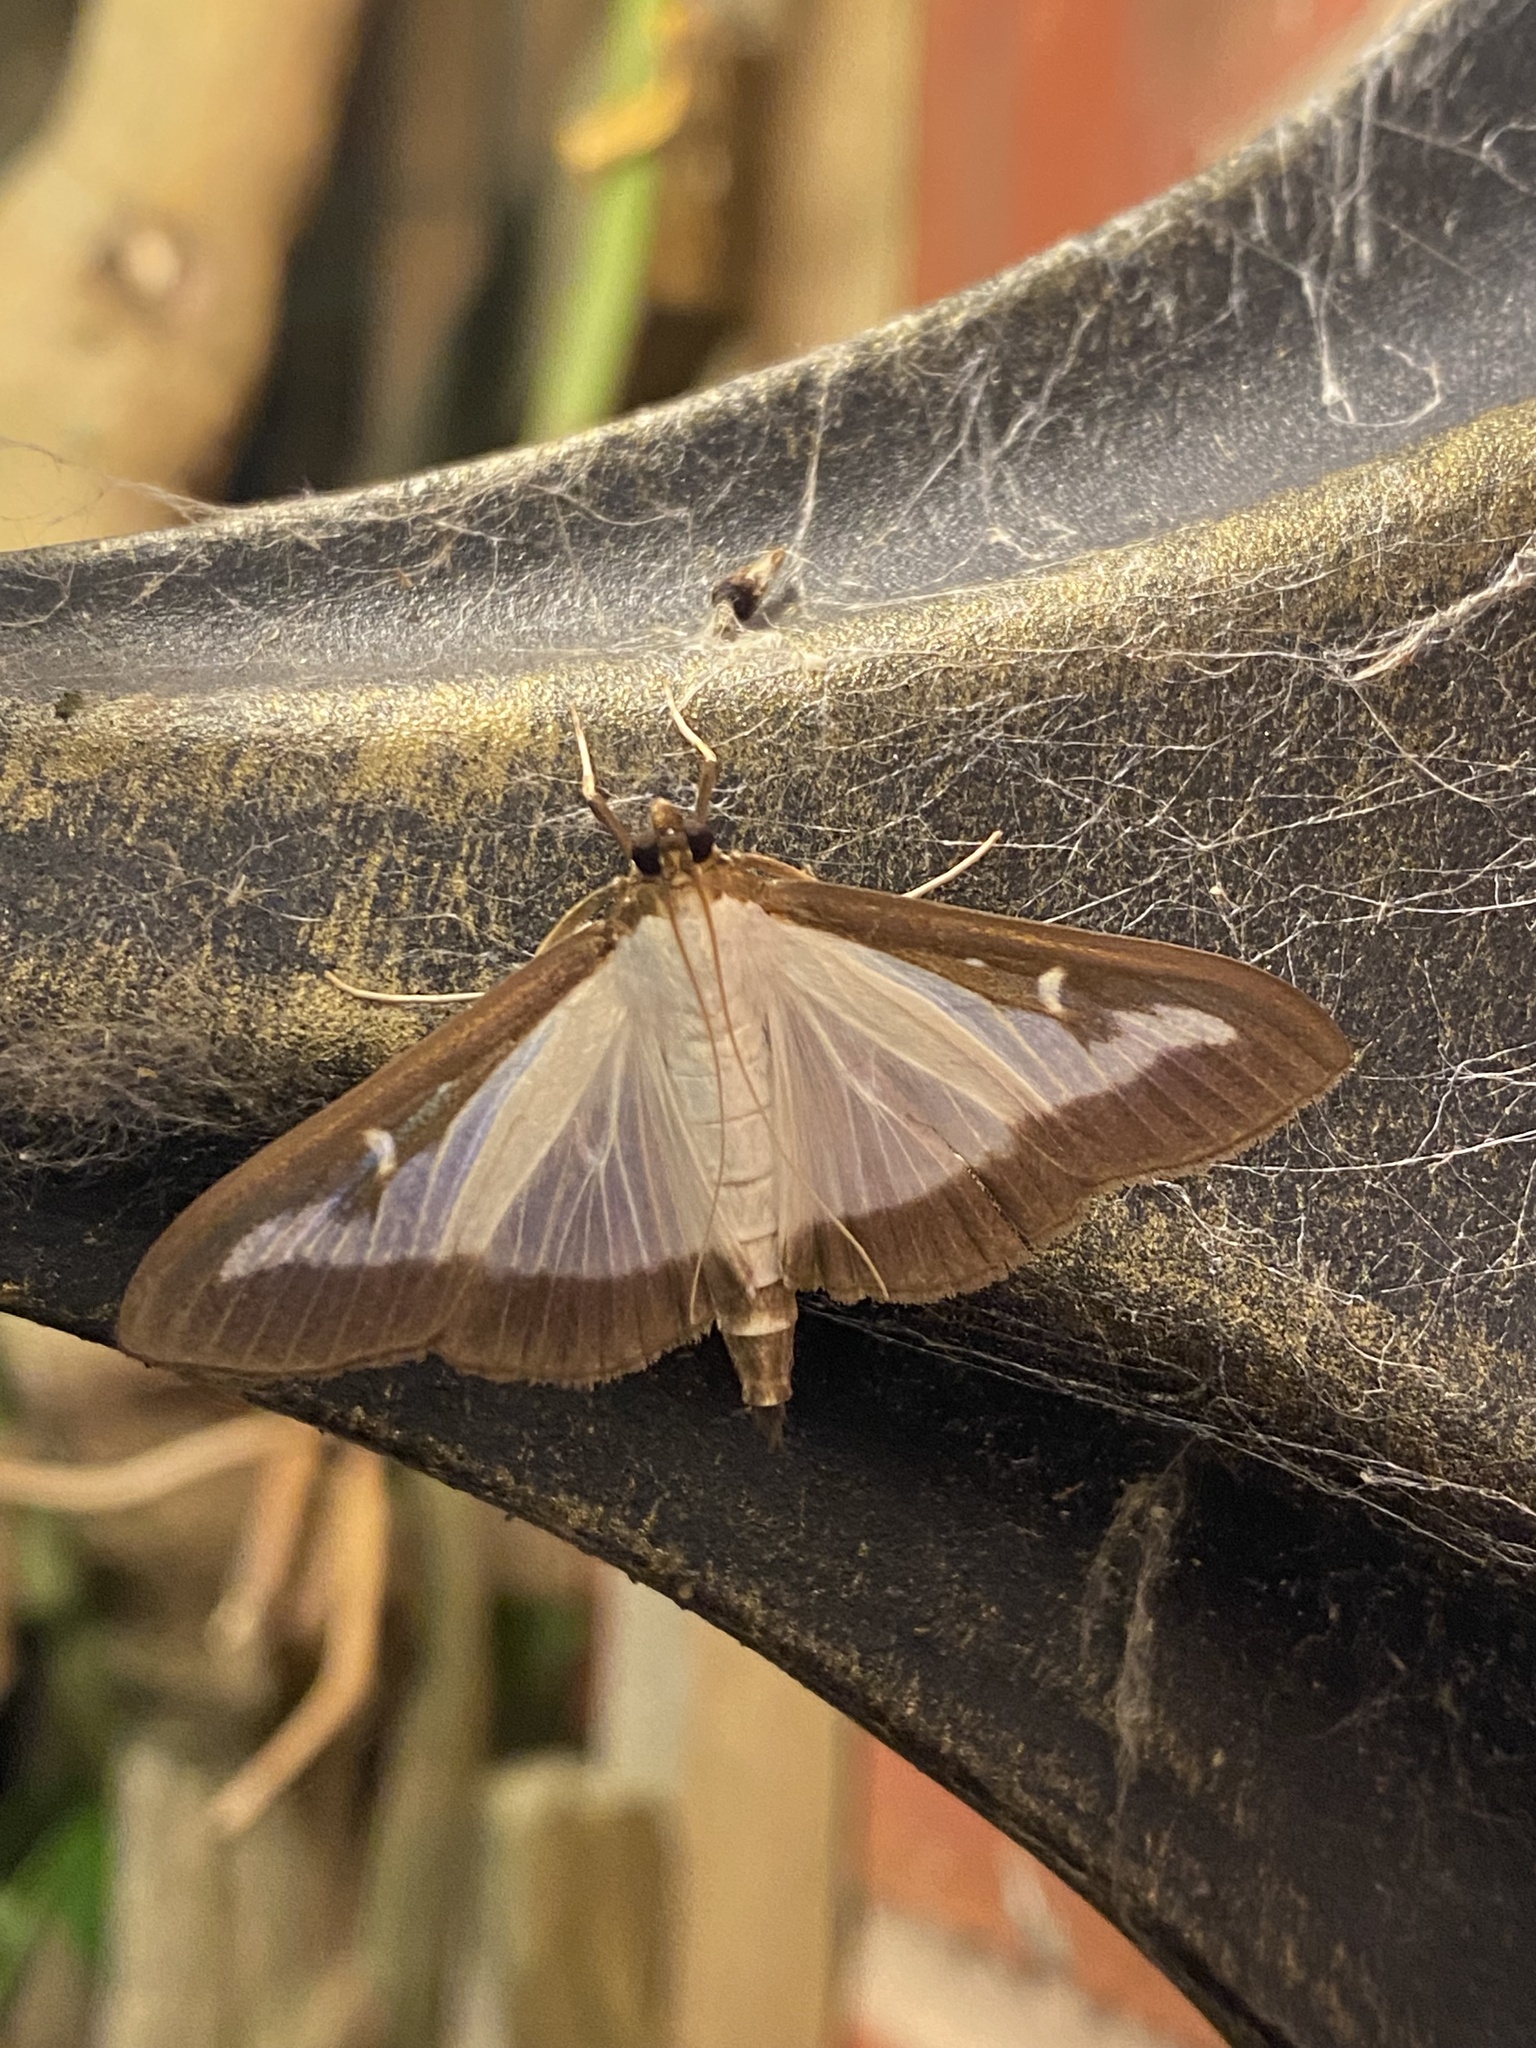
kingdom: Animalia
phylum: Arthropoda
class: Insecta
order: Lepidoptera
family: Crambidae
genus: Cydalima
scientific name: Cydalima perspectalis
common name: Box tree moth
